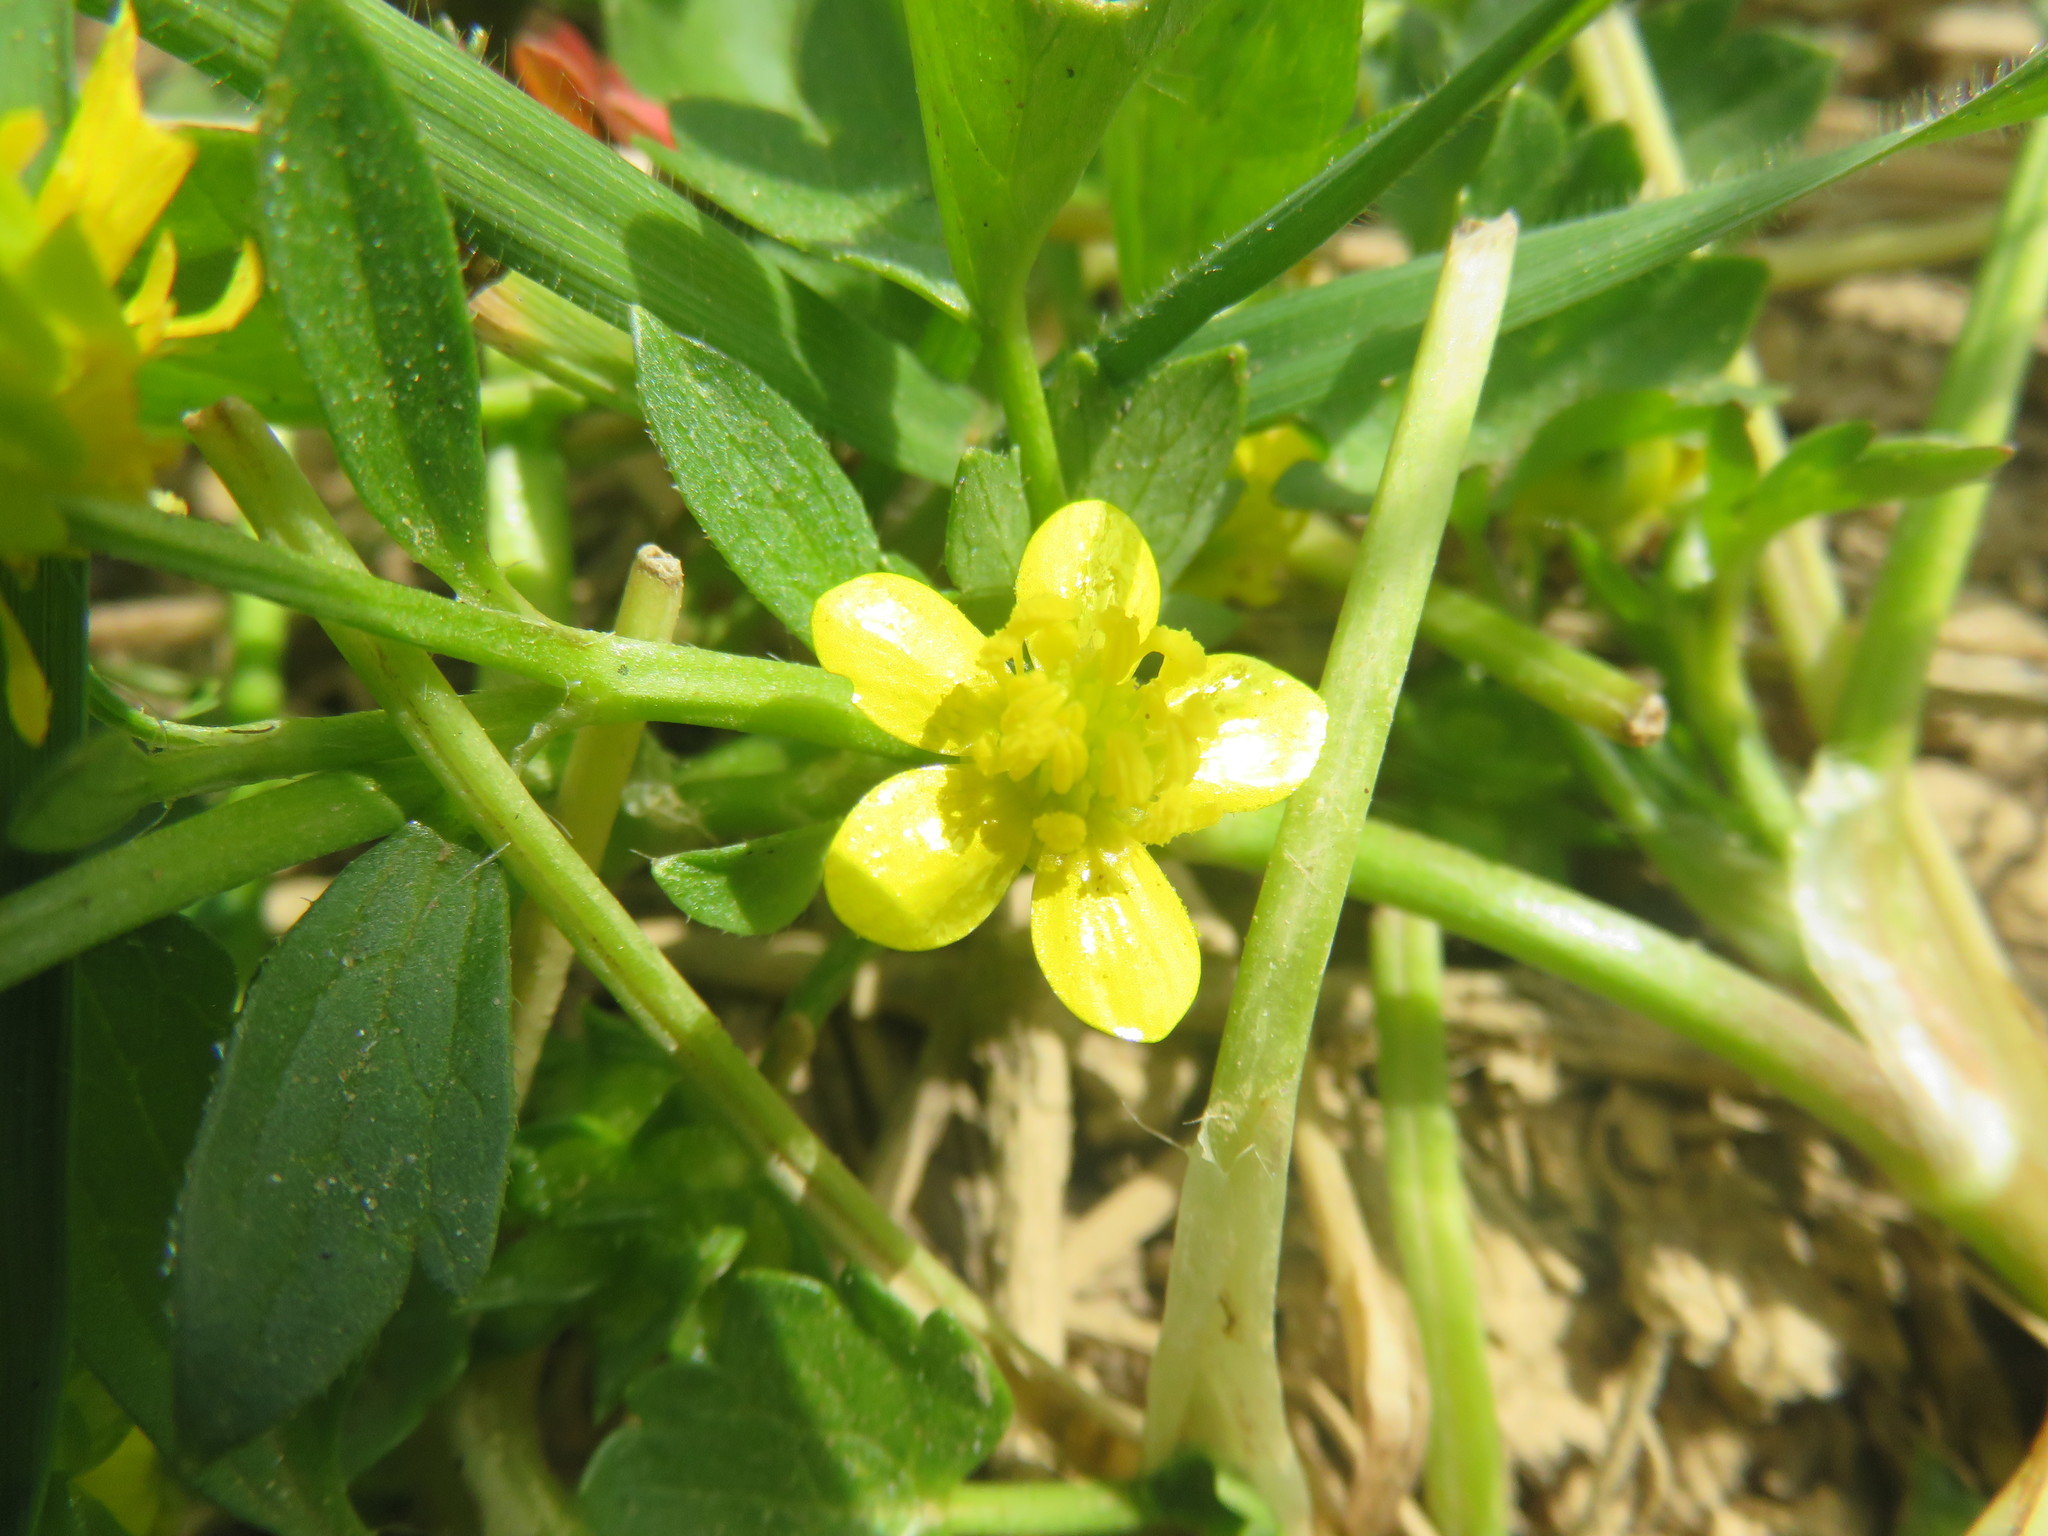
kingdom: Plantae
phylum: Tracheophyta
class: Magnoliopsida
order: Ranunculales
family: Ranunculaceae
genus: Ranunculus
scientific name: Ranunculus muricatus
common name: Rough-fruited buttercup
